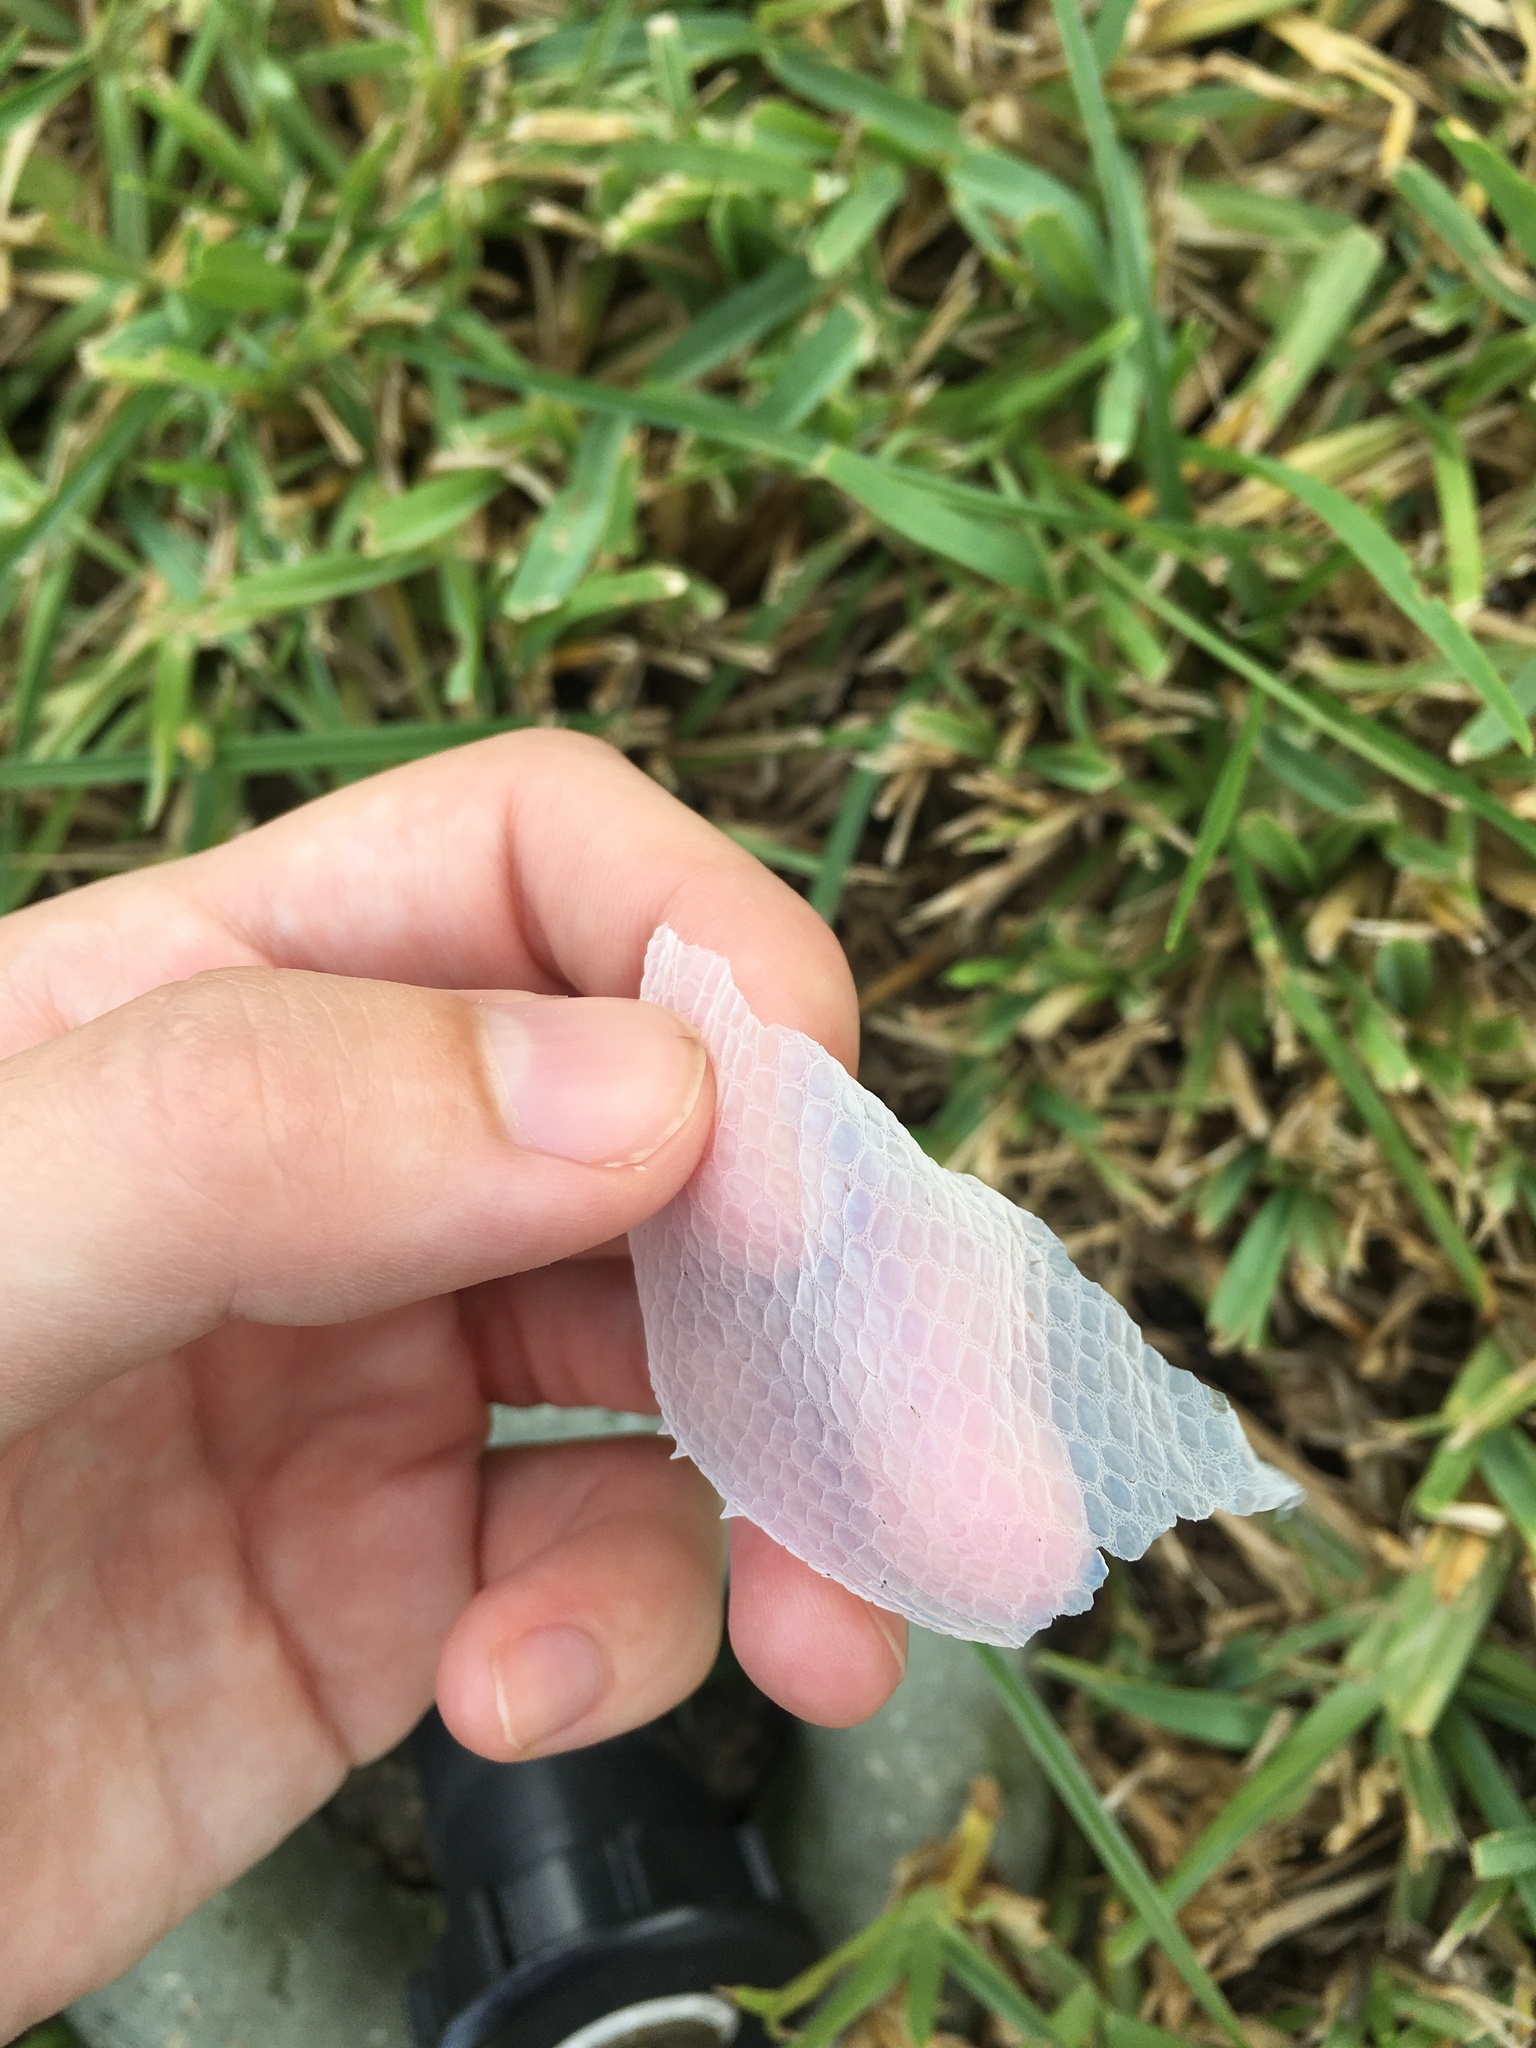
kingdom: Animalia
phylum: Chordata
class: Squamata
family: Dactyloidae
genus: Anolis
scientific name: Anolis equestris
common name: Knight anole
